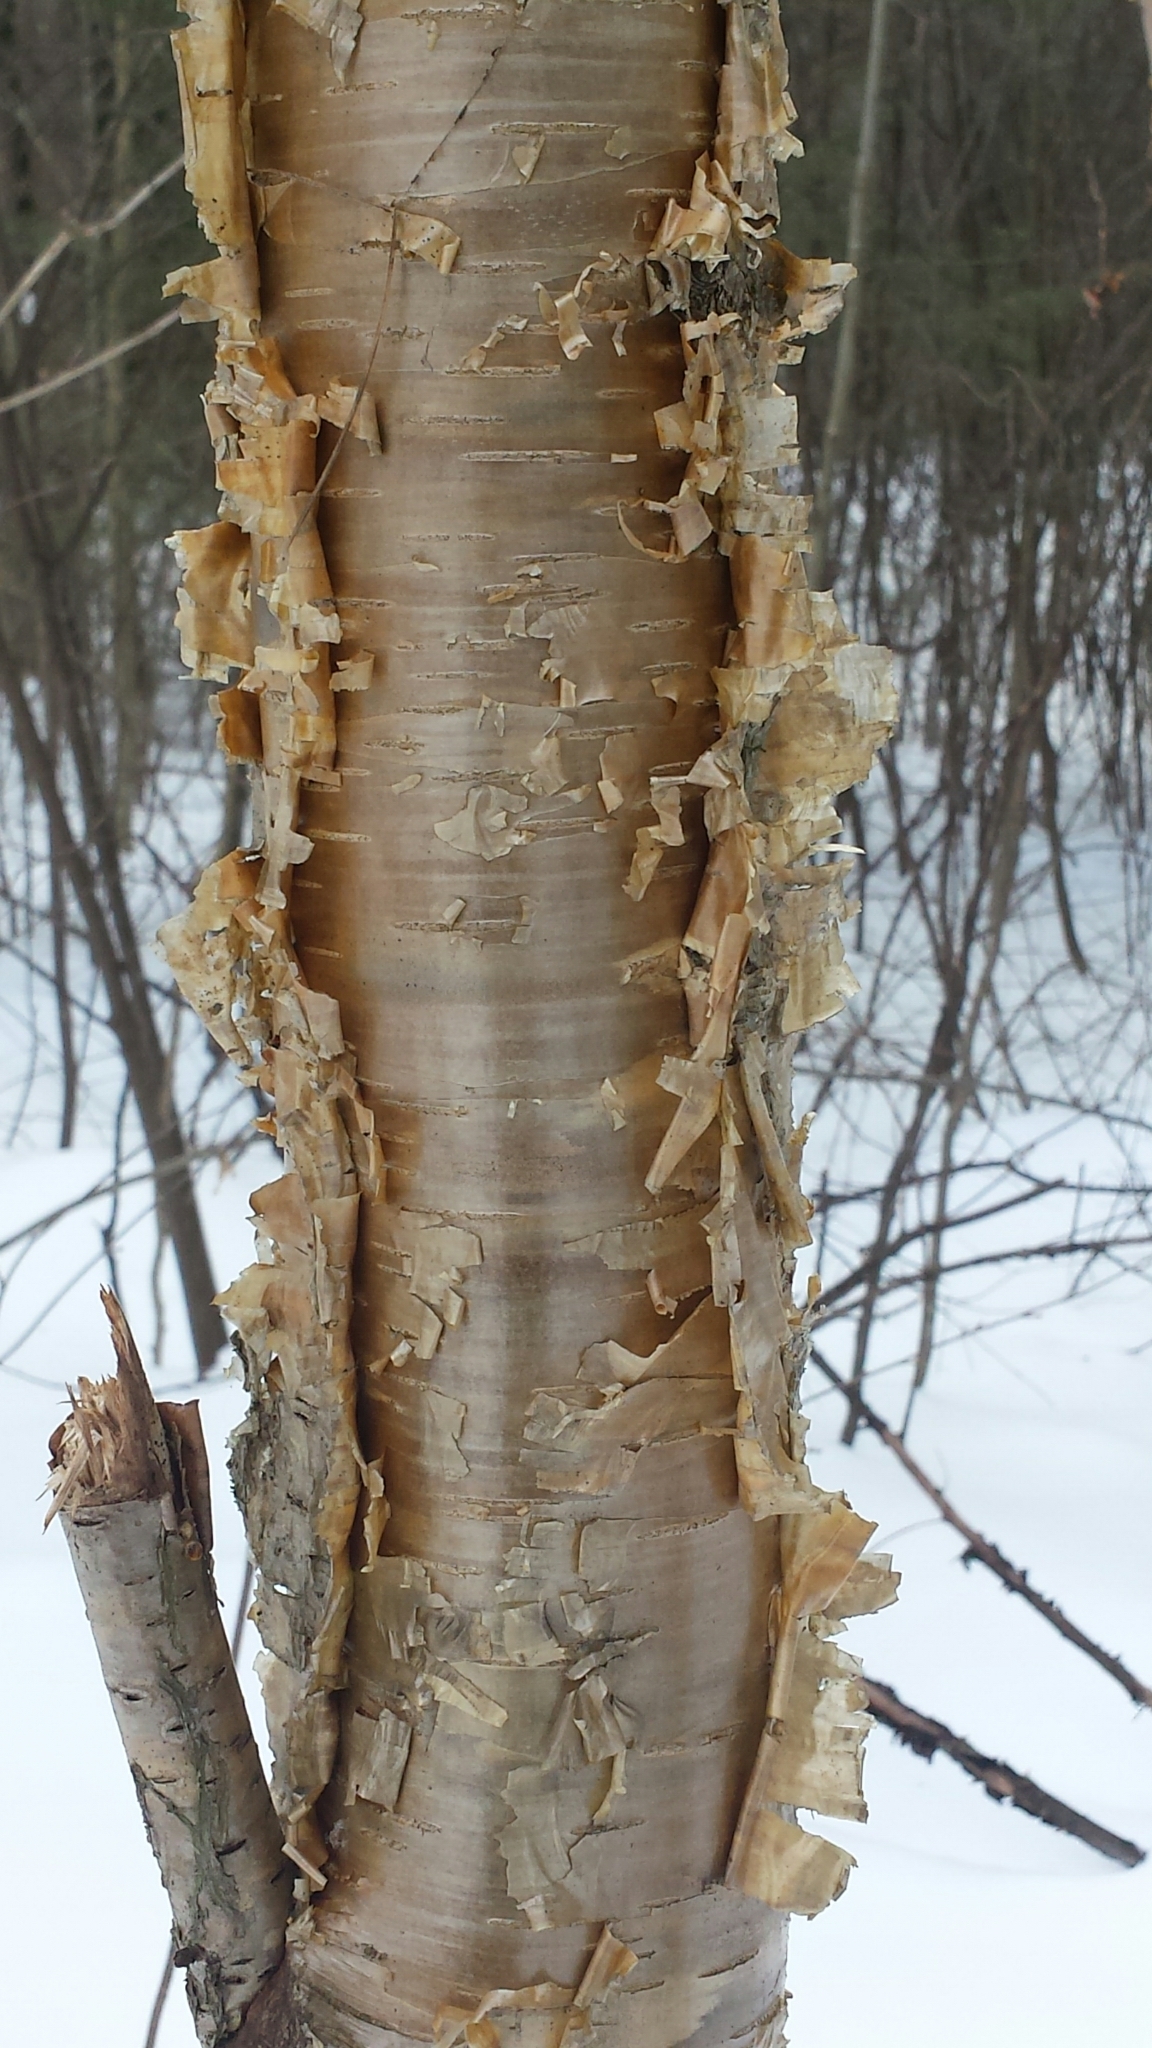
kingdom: Plantae
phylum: Tracheophyta
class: Magnoliopsida
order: Fagales
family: Betulaceae
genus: Betula
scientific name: Betula alleghaniensis
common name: Yellow birch
